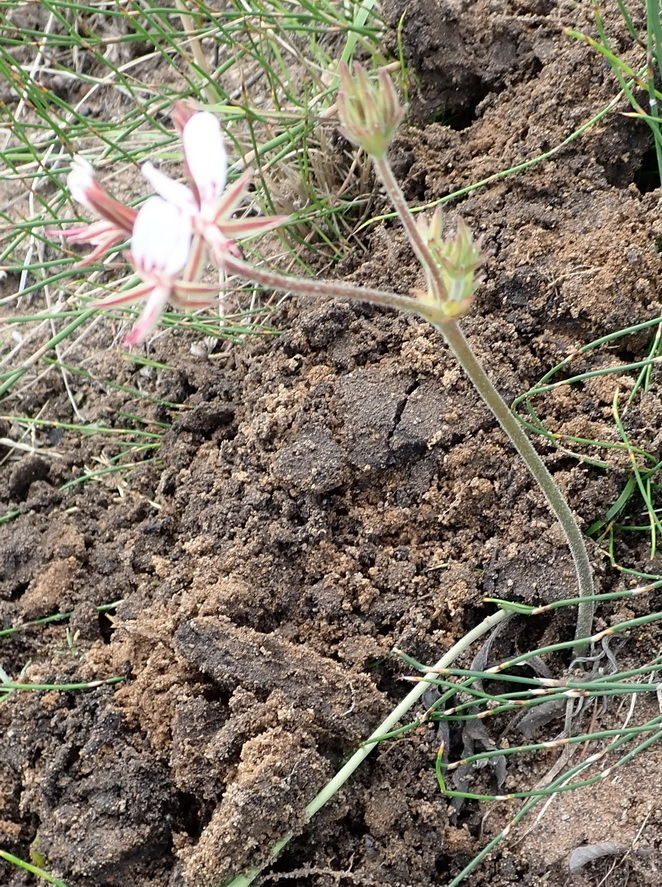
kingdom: Plantae
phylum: Tracheophyta
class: Magnoliopsida
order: Geraniales
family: Geraniaceae
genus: Pelargonium
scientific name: Pelargonium dipetalum
